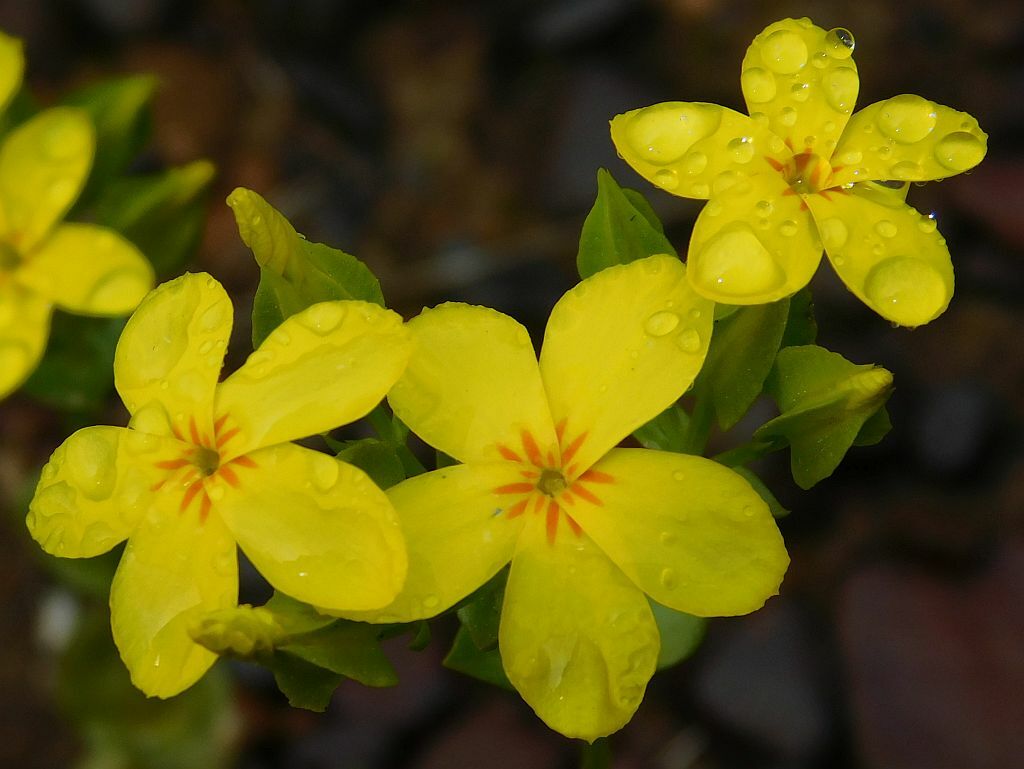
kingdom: Plantae
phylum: Tracheophyta
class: Magnoliopsida
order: Gentianales
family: Gentianaceae
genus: Sebaea
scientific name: Sebaea exacoides
